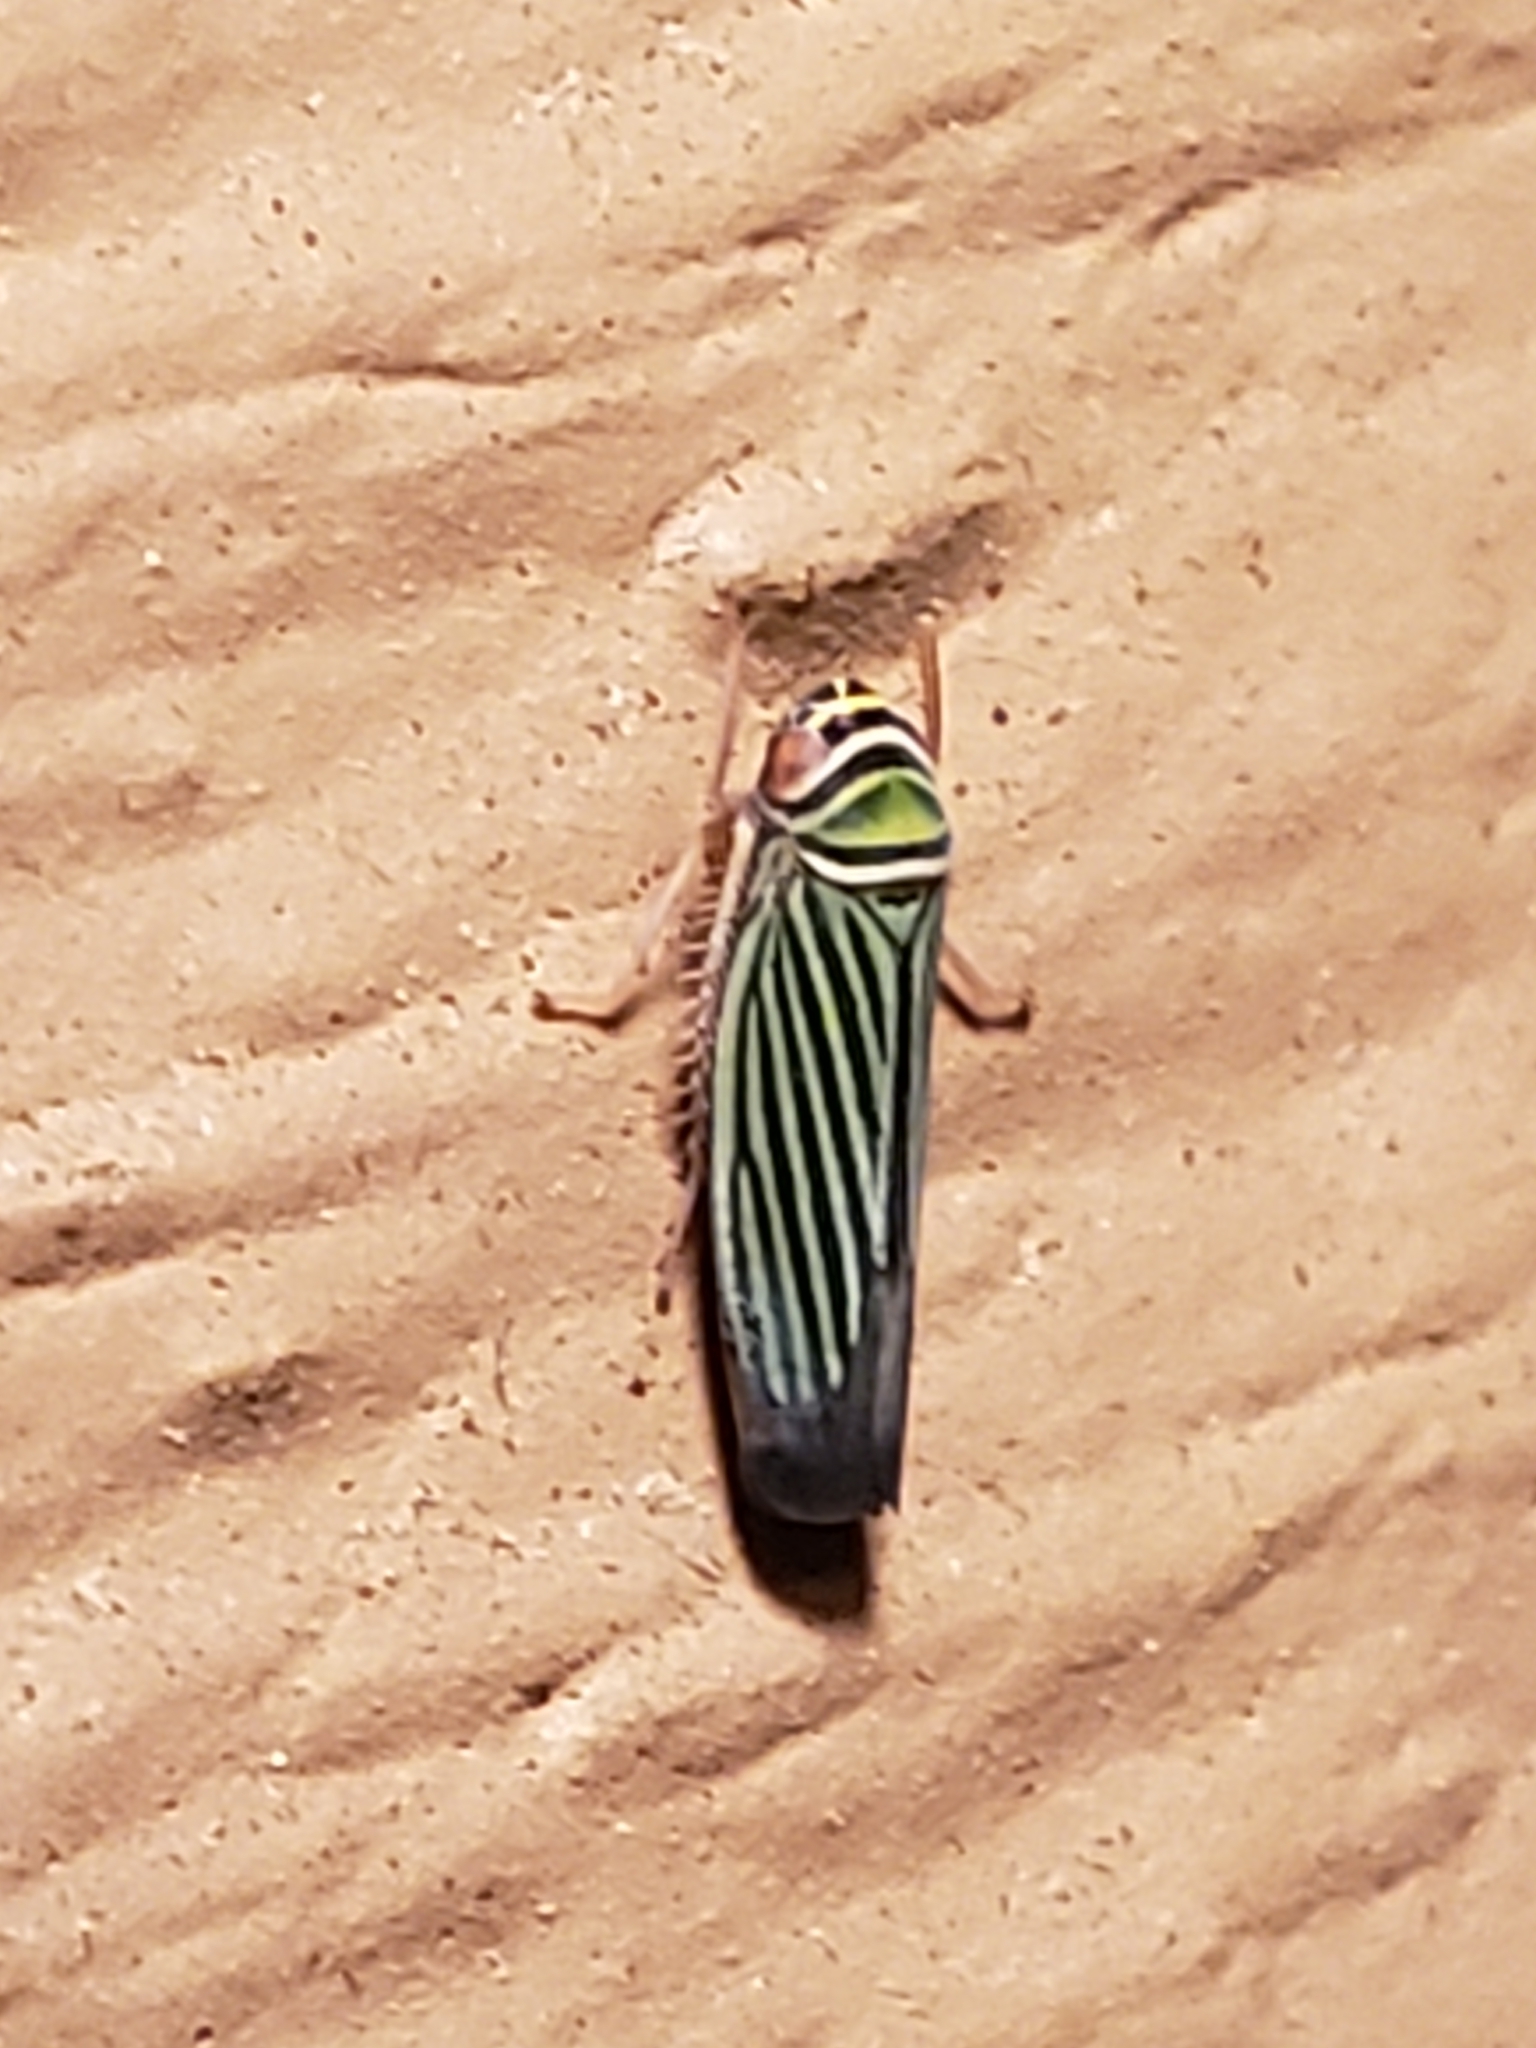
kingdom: Animalia
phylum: Arthropoda
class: Insecta
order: Hemiptera
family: Cicadellidae
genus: Tylozygus
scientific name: Tylozygus bifidus
